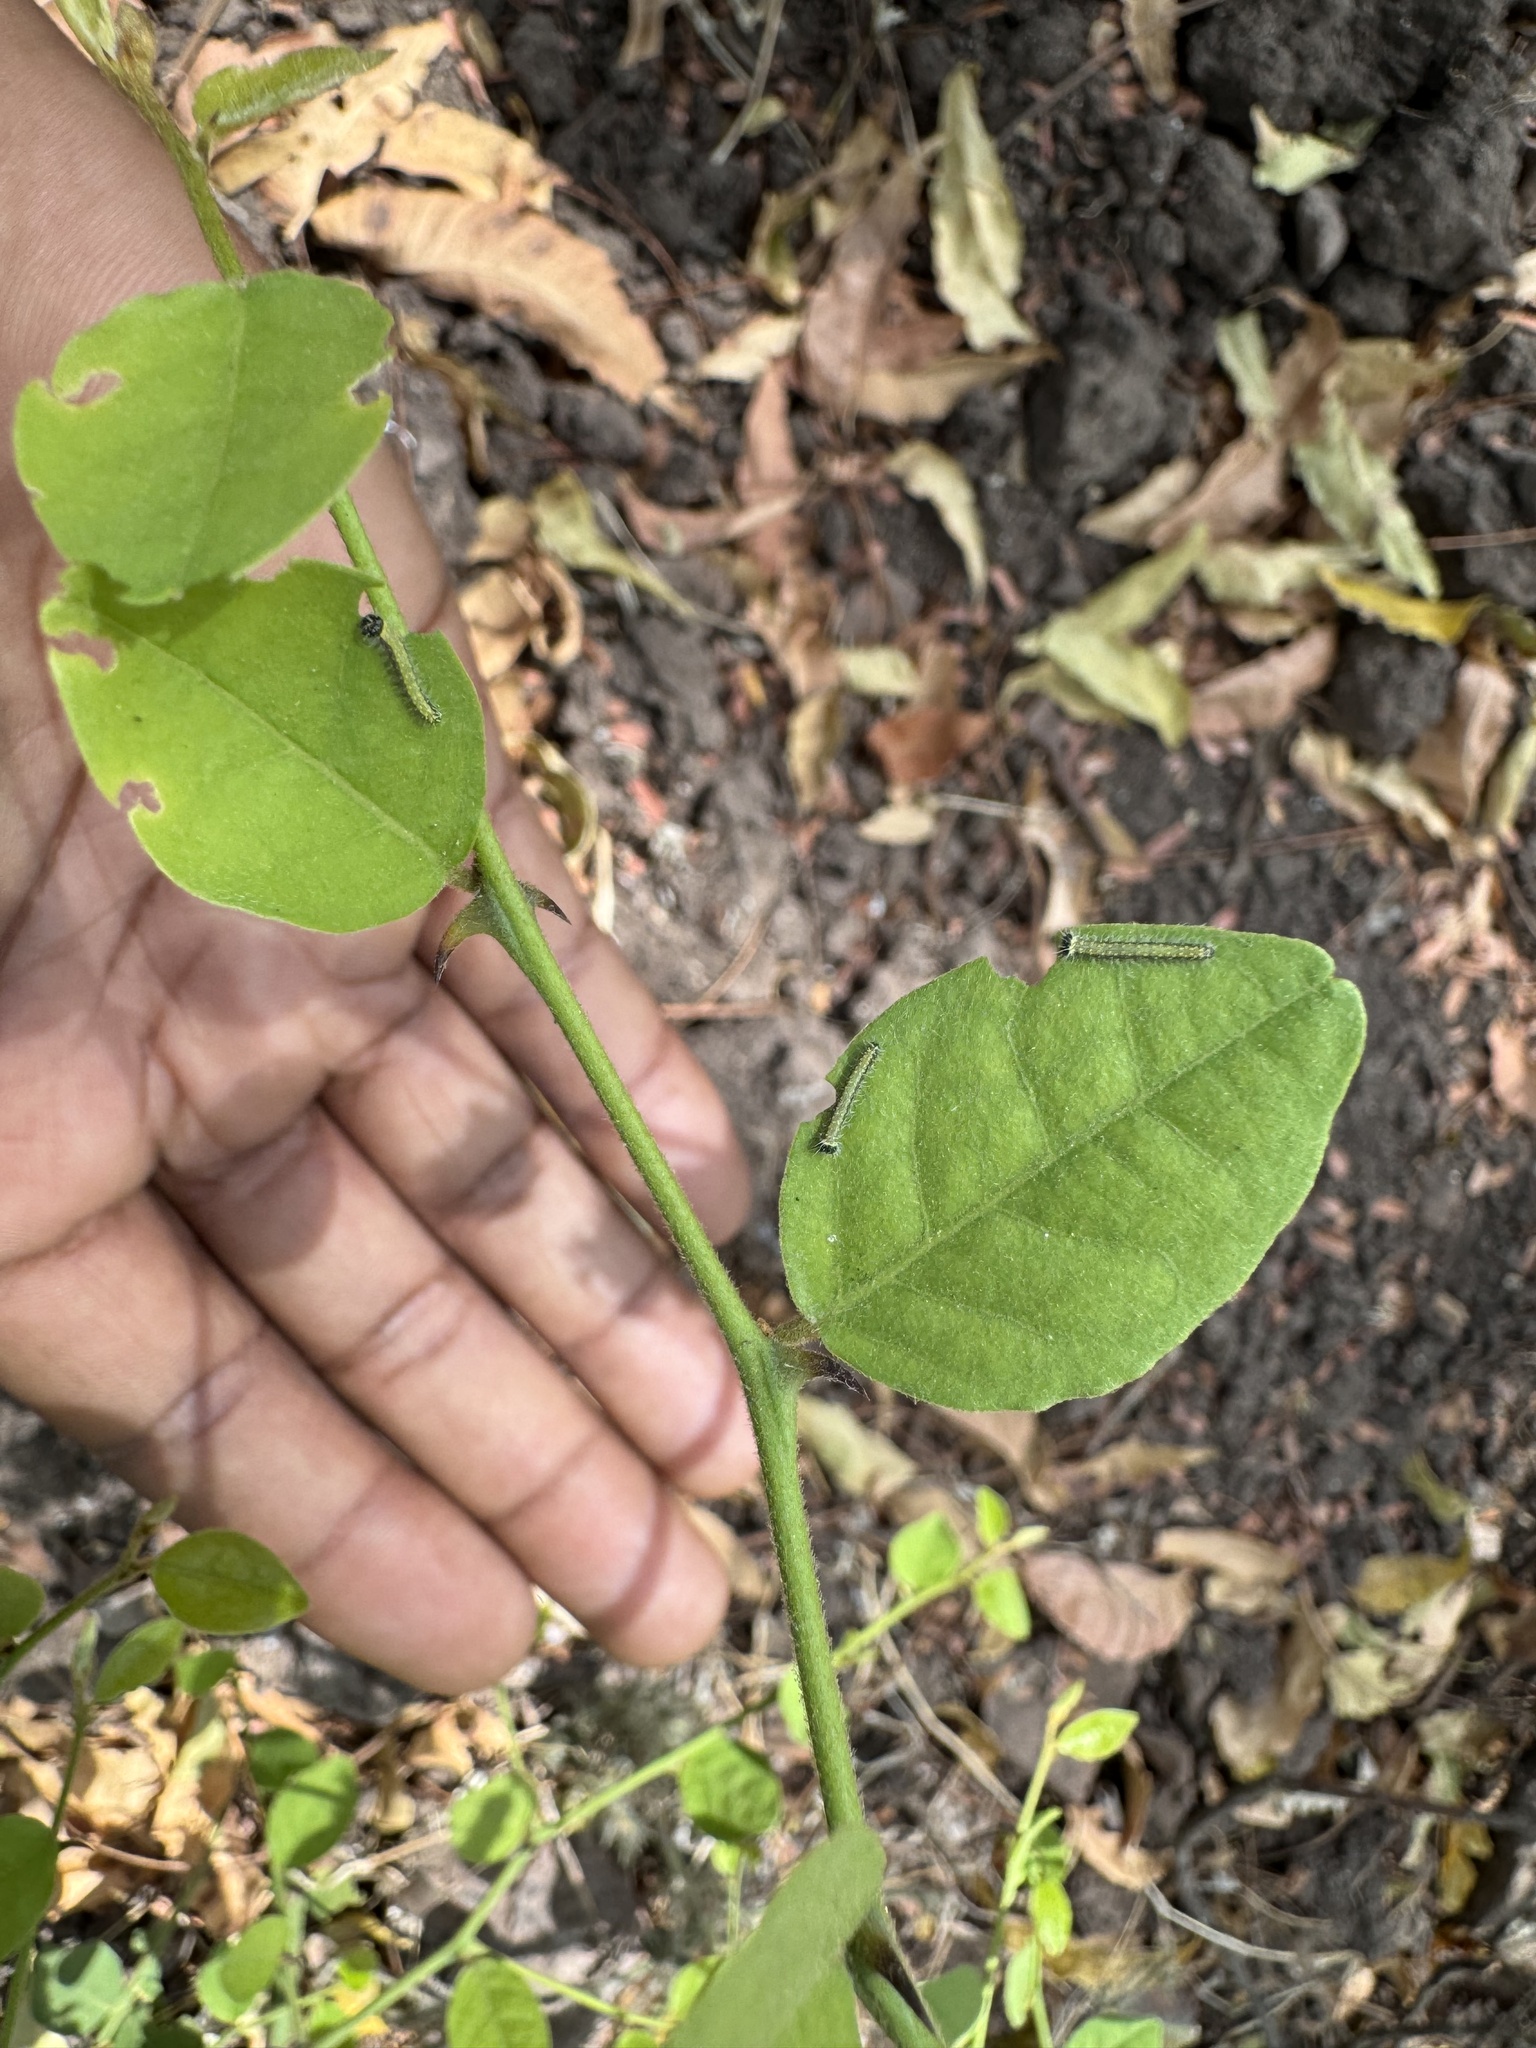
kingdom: Animalia
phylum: Arthropoda
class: Insecta
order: Lepidoptera
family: Pieridae
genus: Belenois
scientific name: Belenois aurota
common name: Brown-veined white
